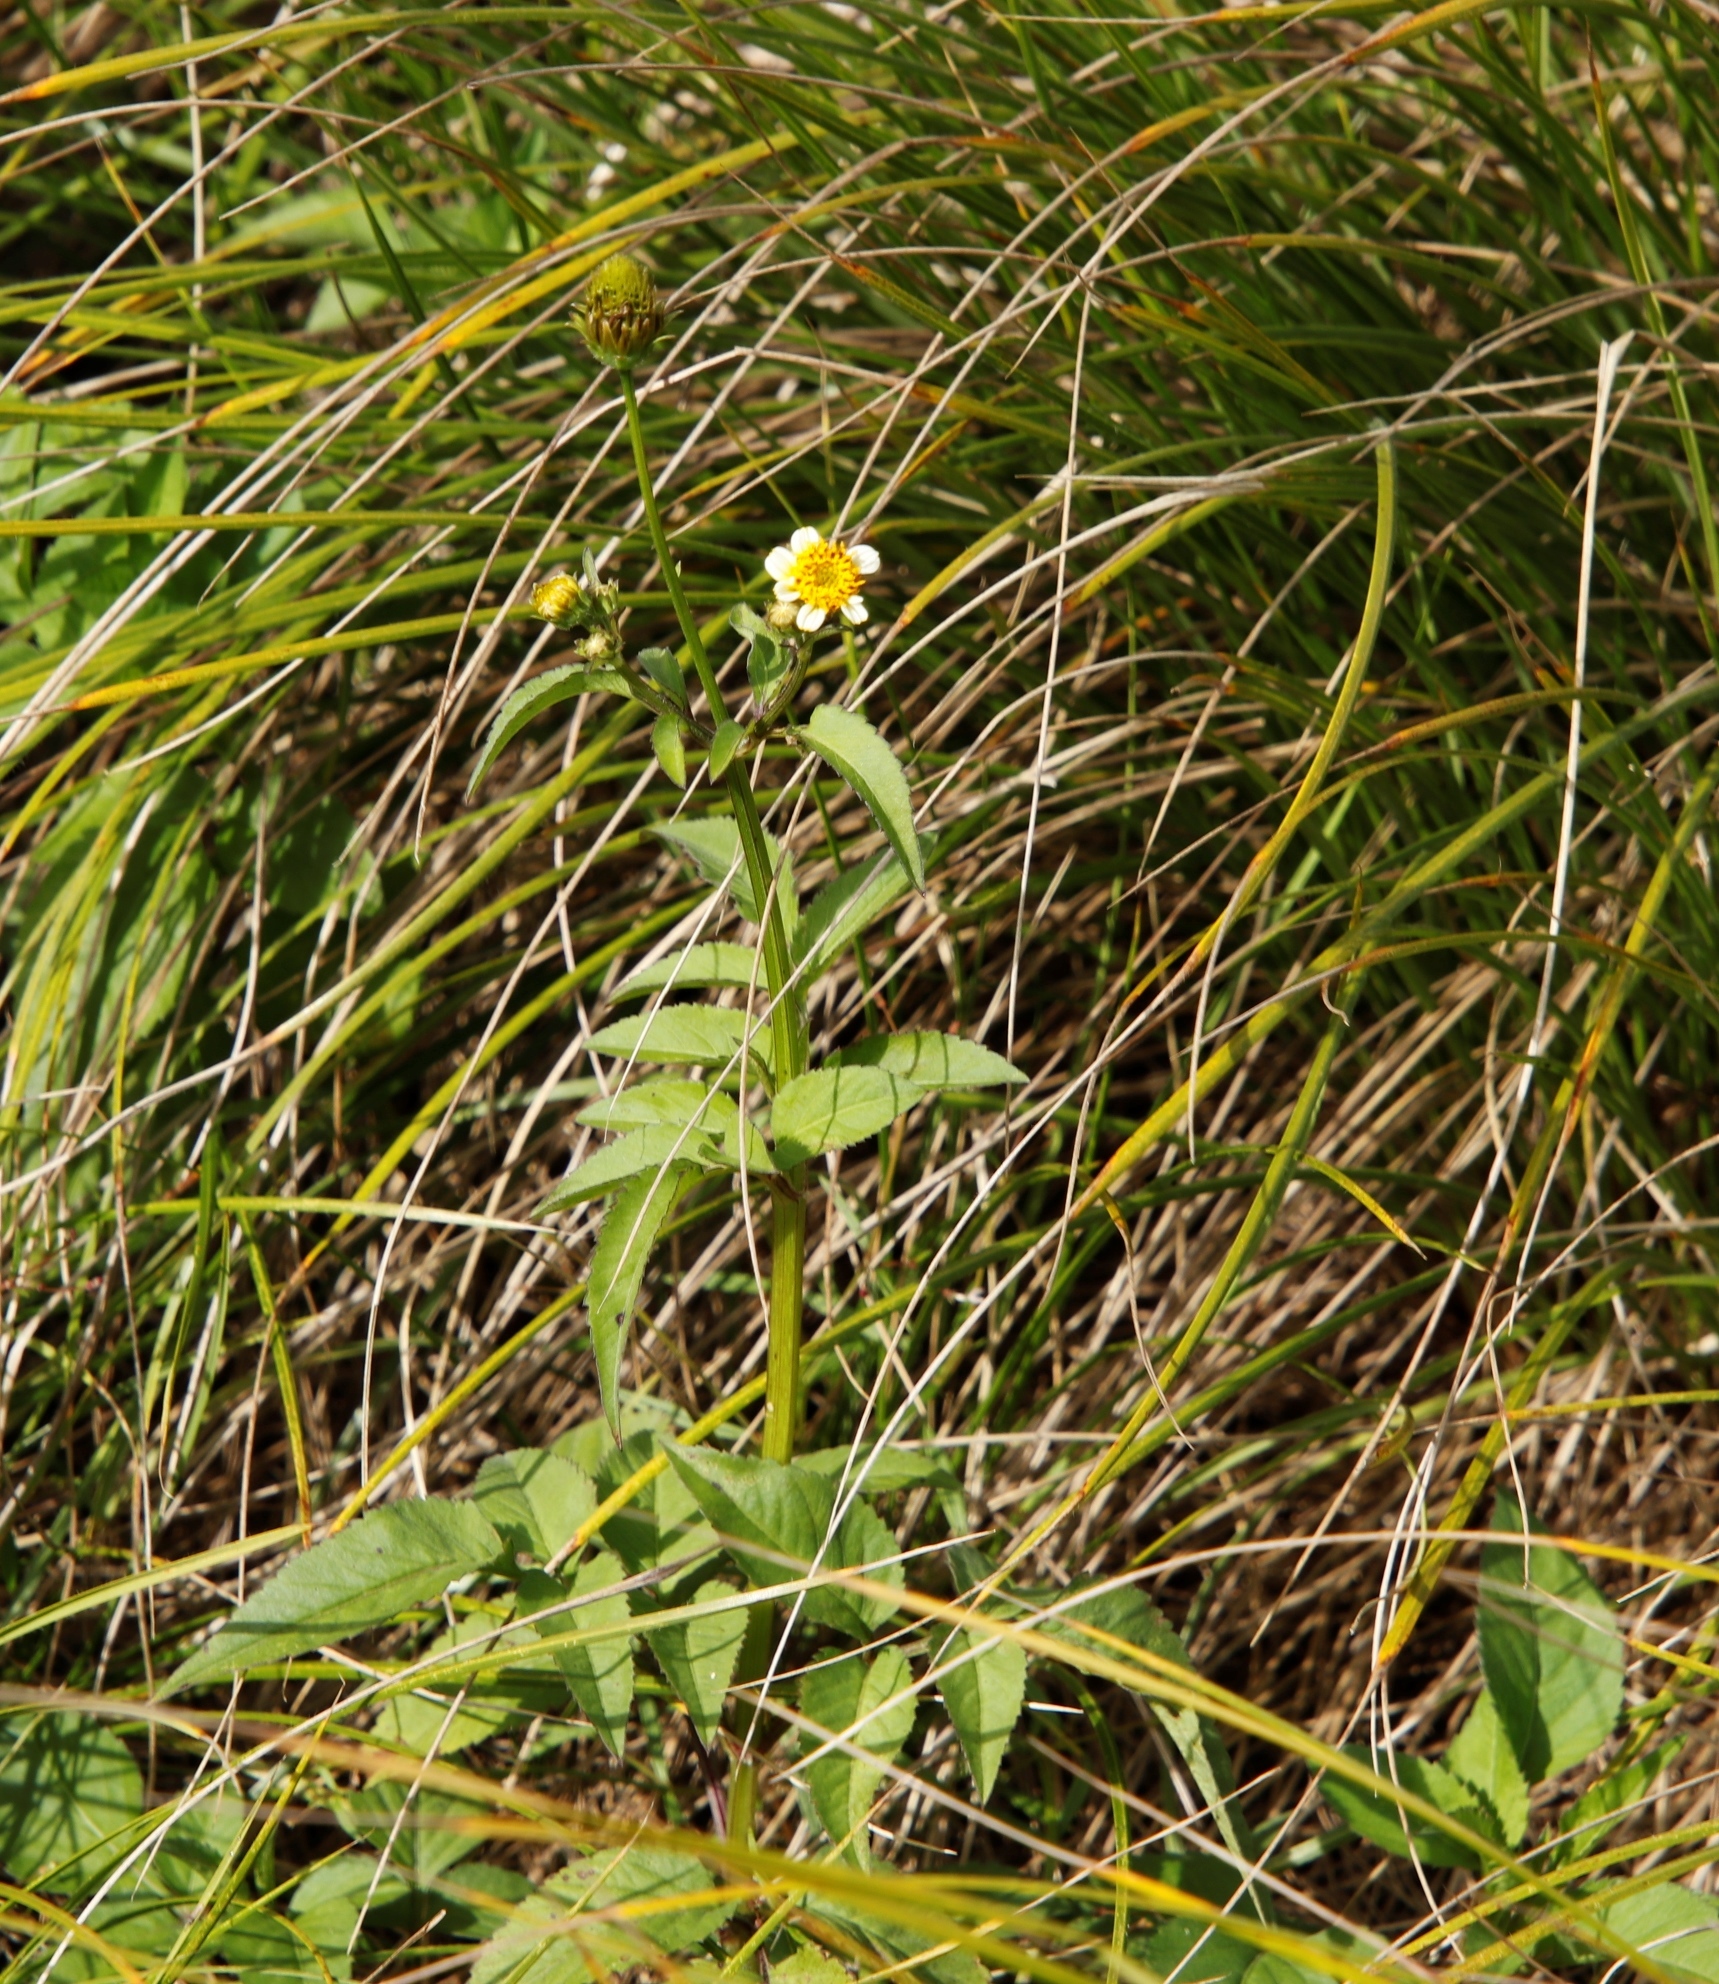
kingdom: Plantae
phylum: Tracheophyta
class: Magnoliopsida
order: Asterales
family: Asteraceae
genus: Bidens
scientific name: Bidens pilosa
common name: Black-jack
